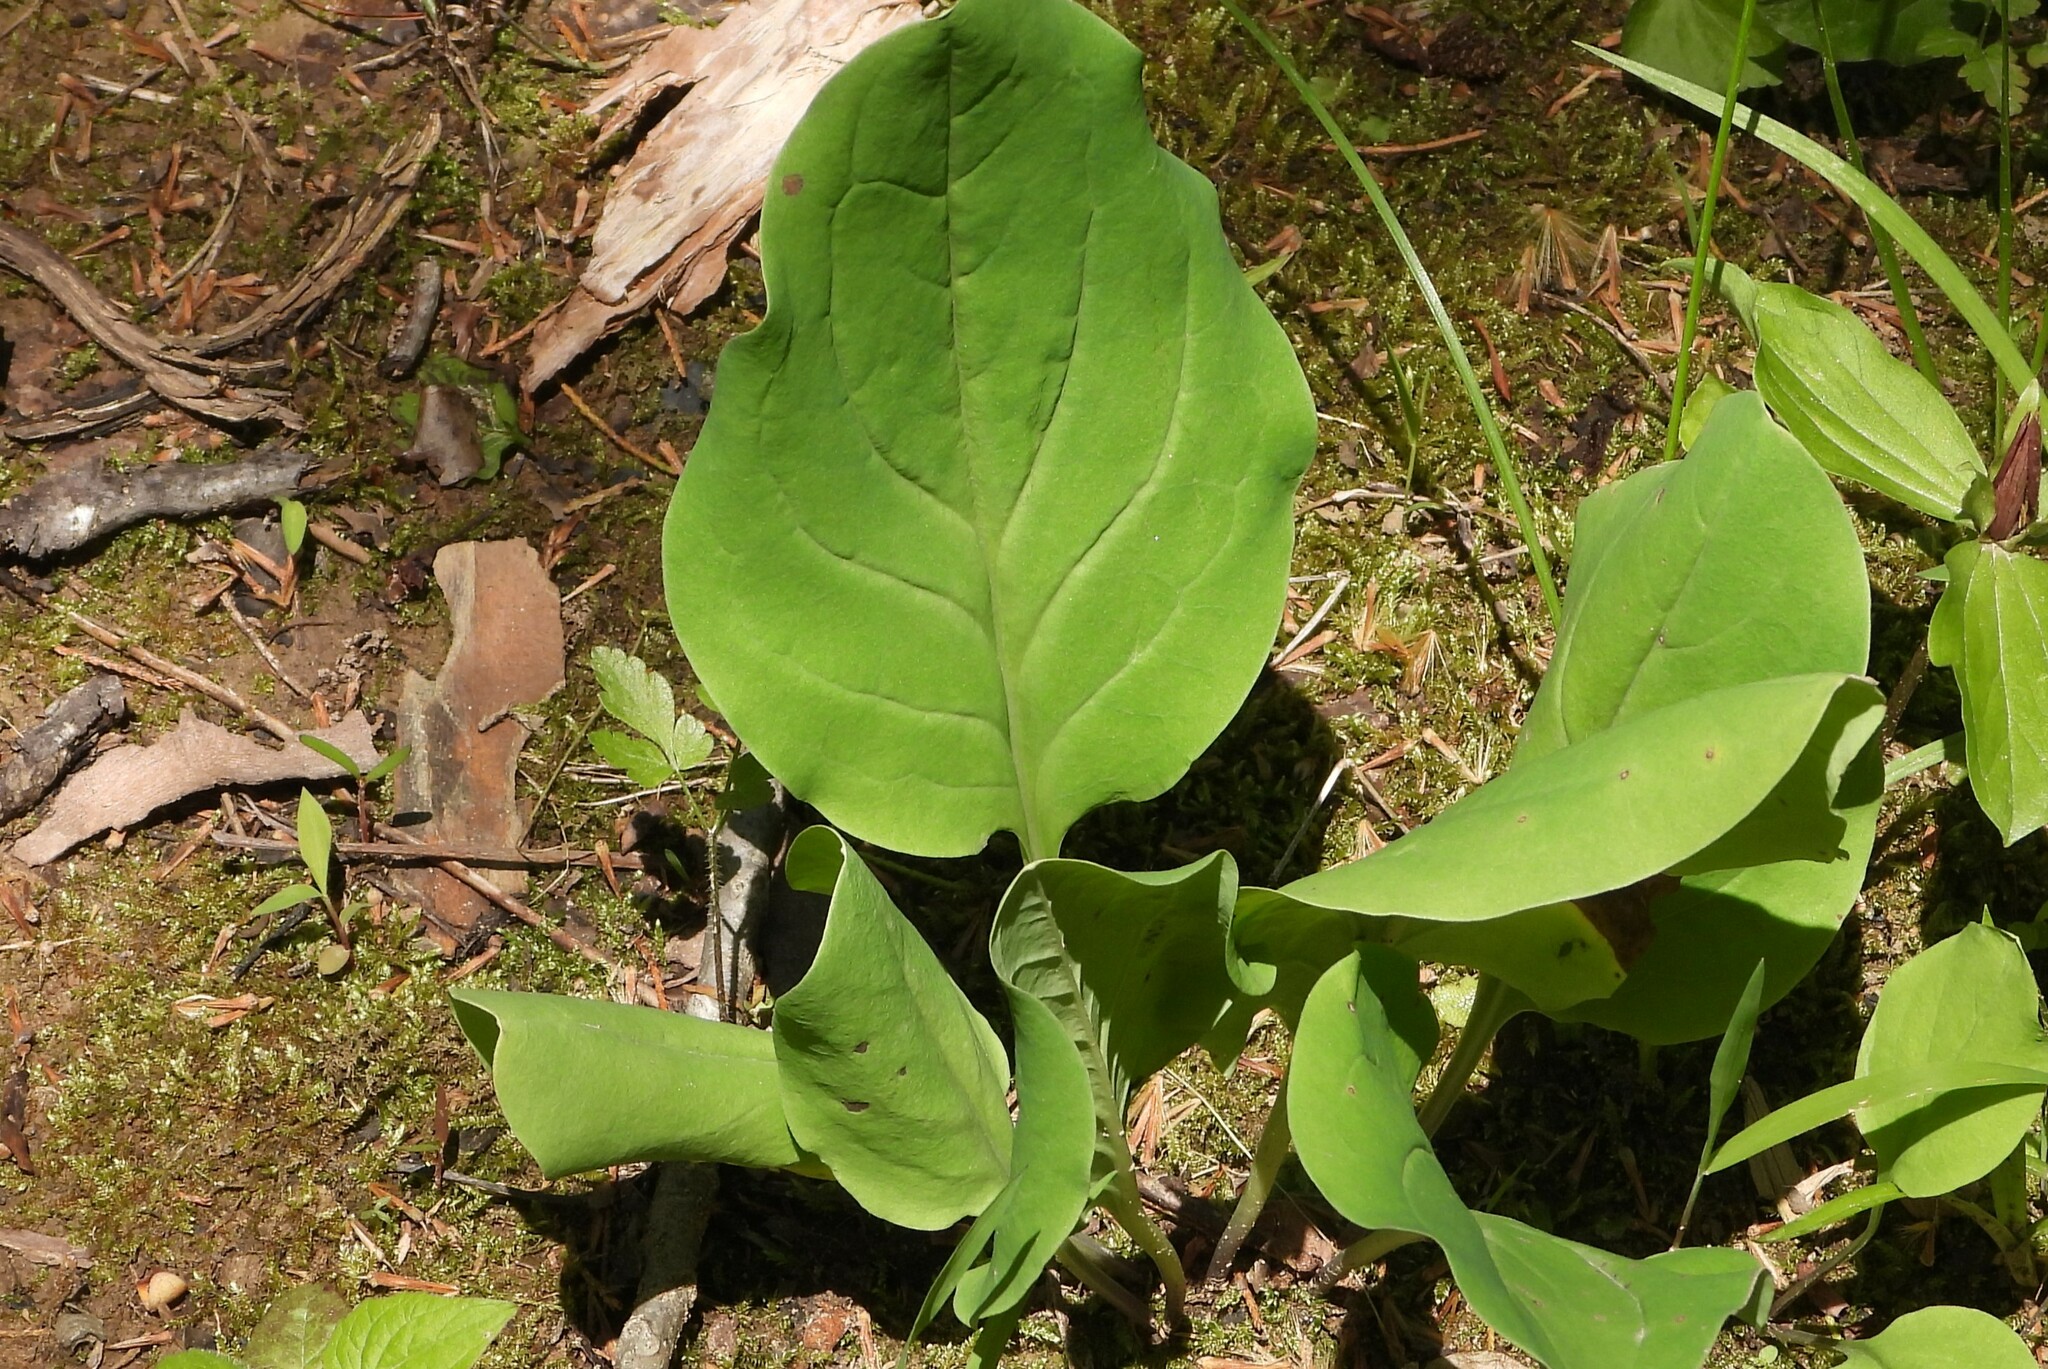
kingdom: Plantae
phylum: Tracheophyta
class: Magnoliopsida
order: Boraginales
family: Boraginaceae
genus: Mertensia
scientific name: Mertensia virginica
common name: Virginia bluebells
